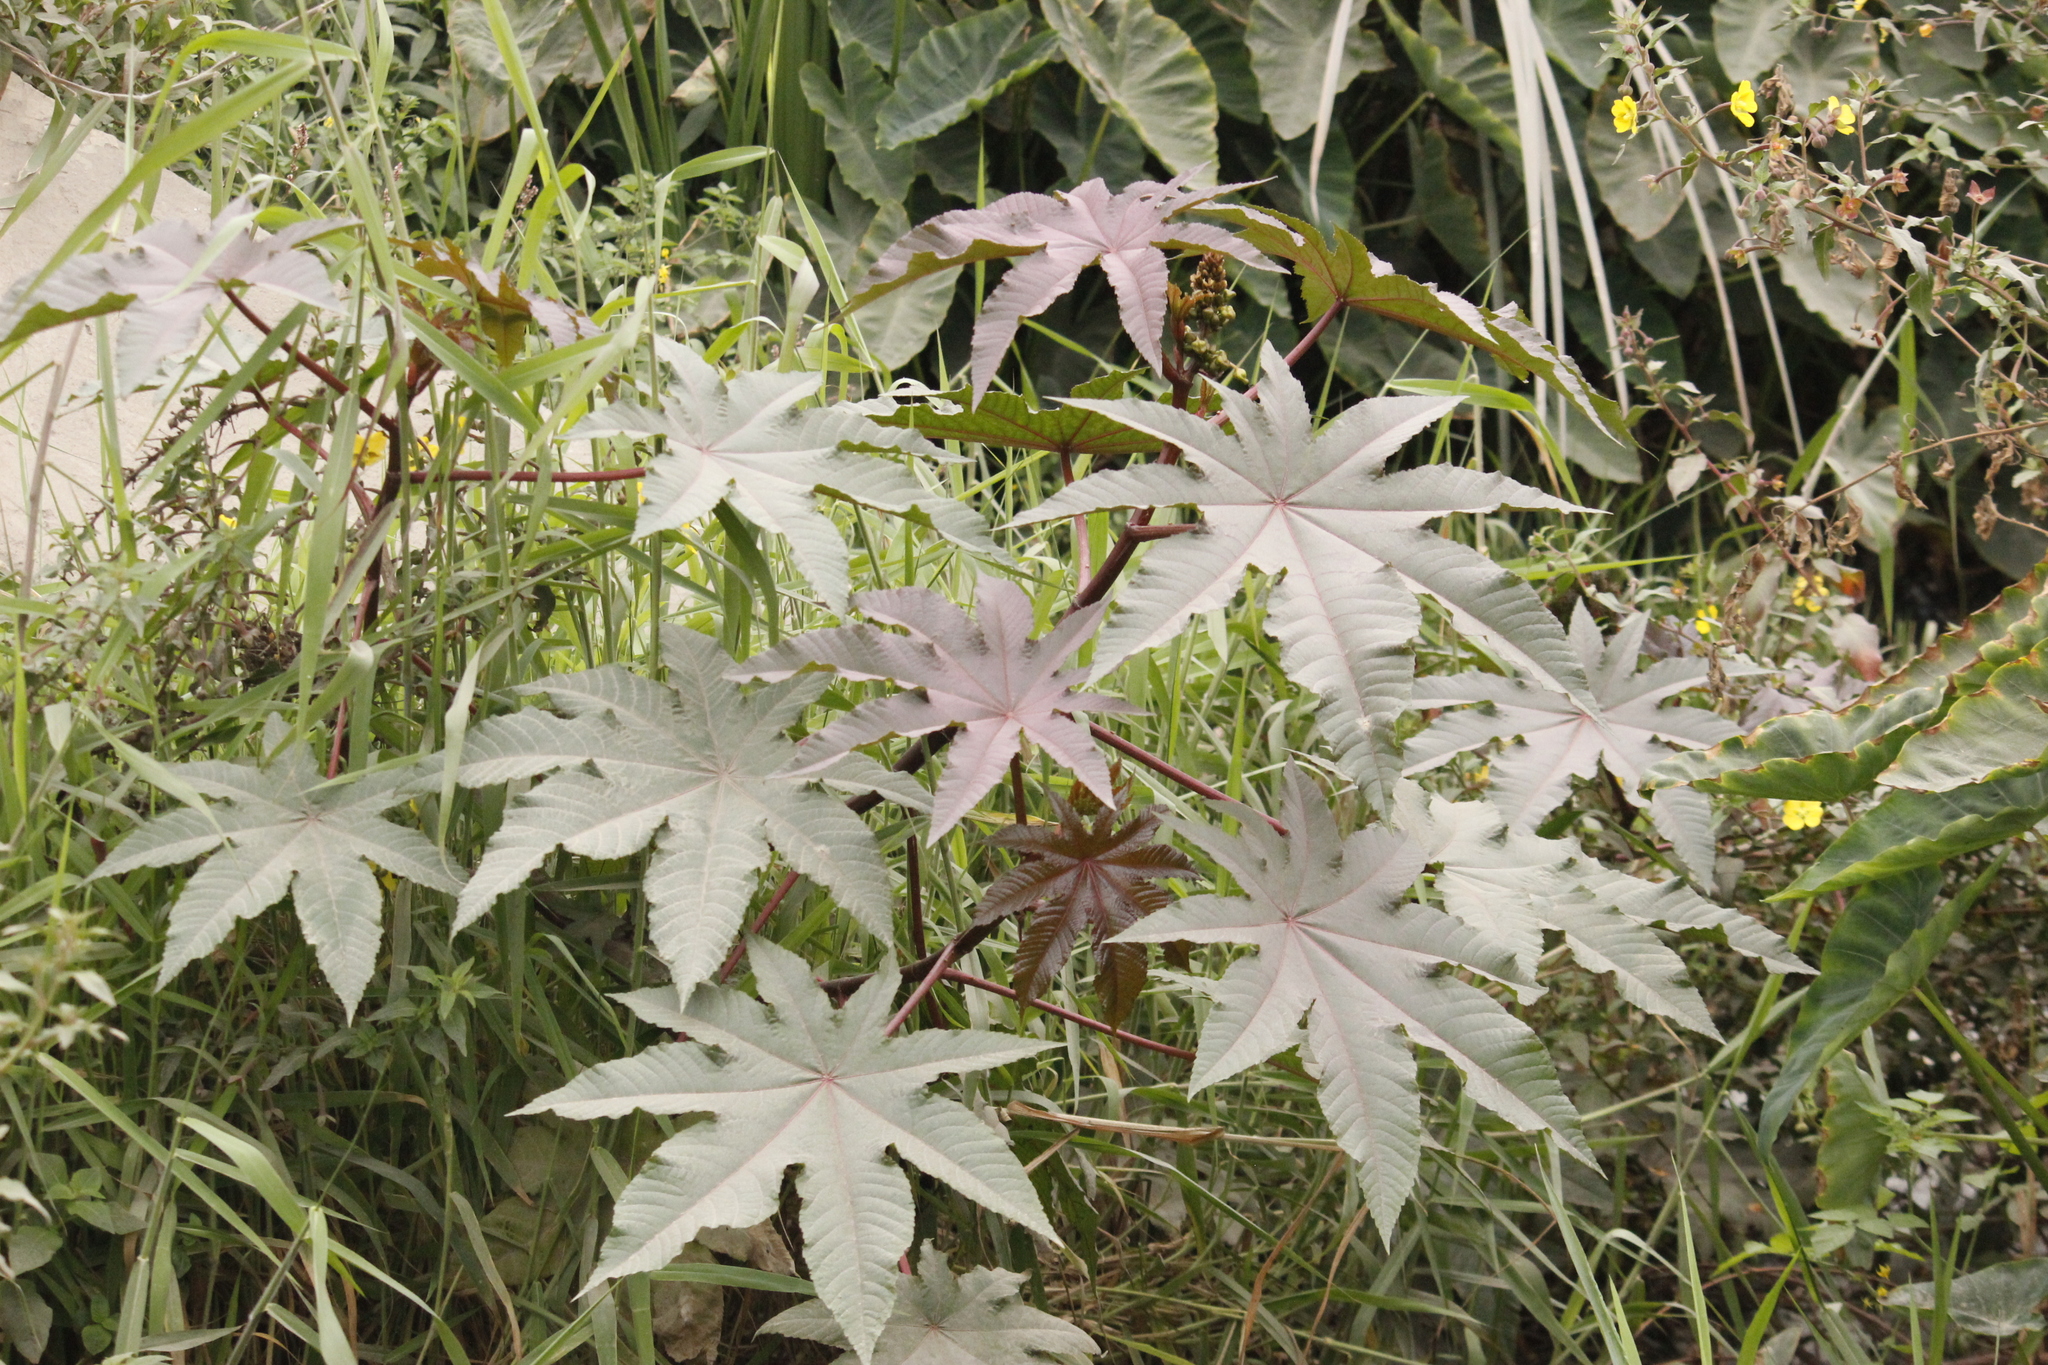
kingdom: Plantae
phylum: Tracheophyta
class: Magnoliopsida
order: Malpighiales
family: Euphorbiaceae
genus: Ricinus
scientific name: Ricinus communis
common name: Castor-oil-plant
